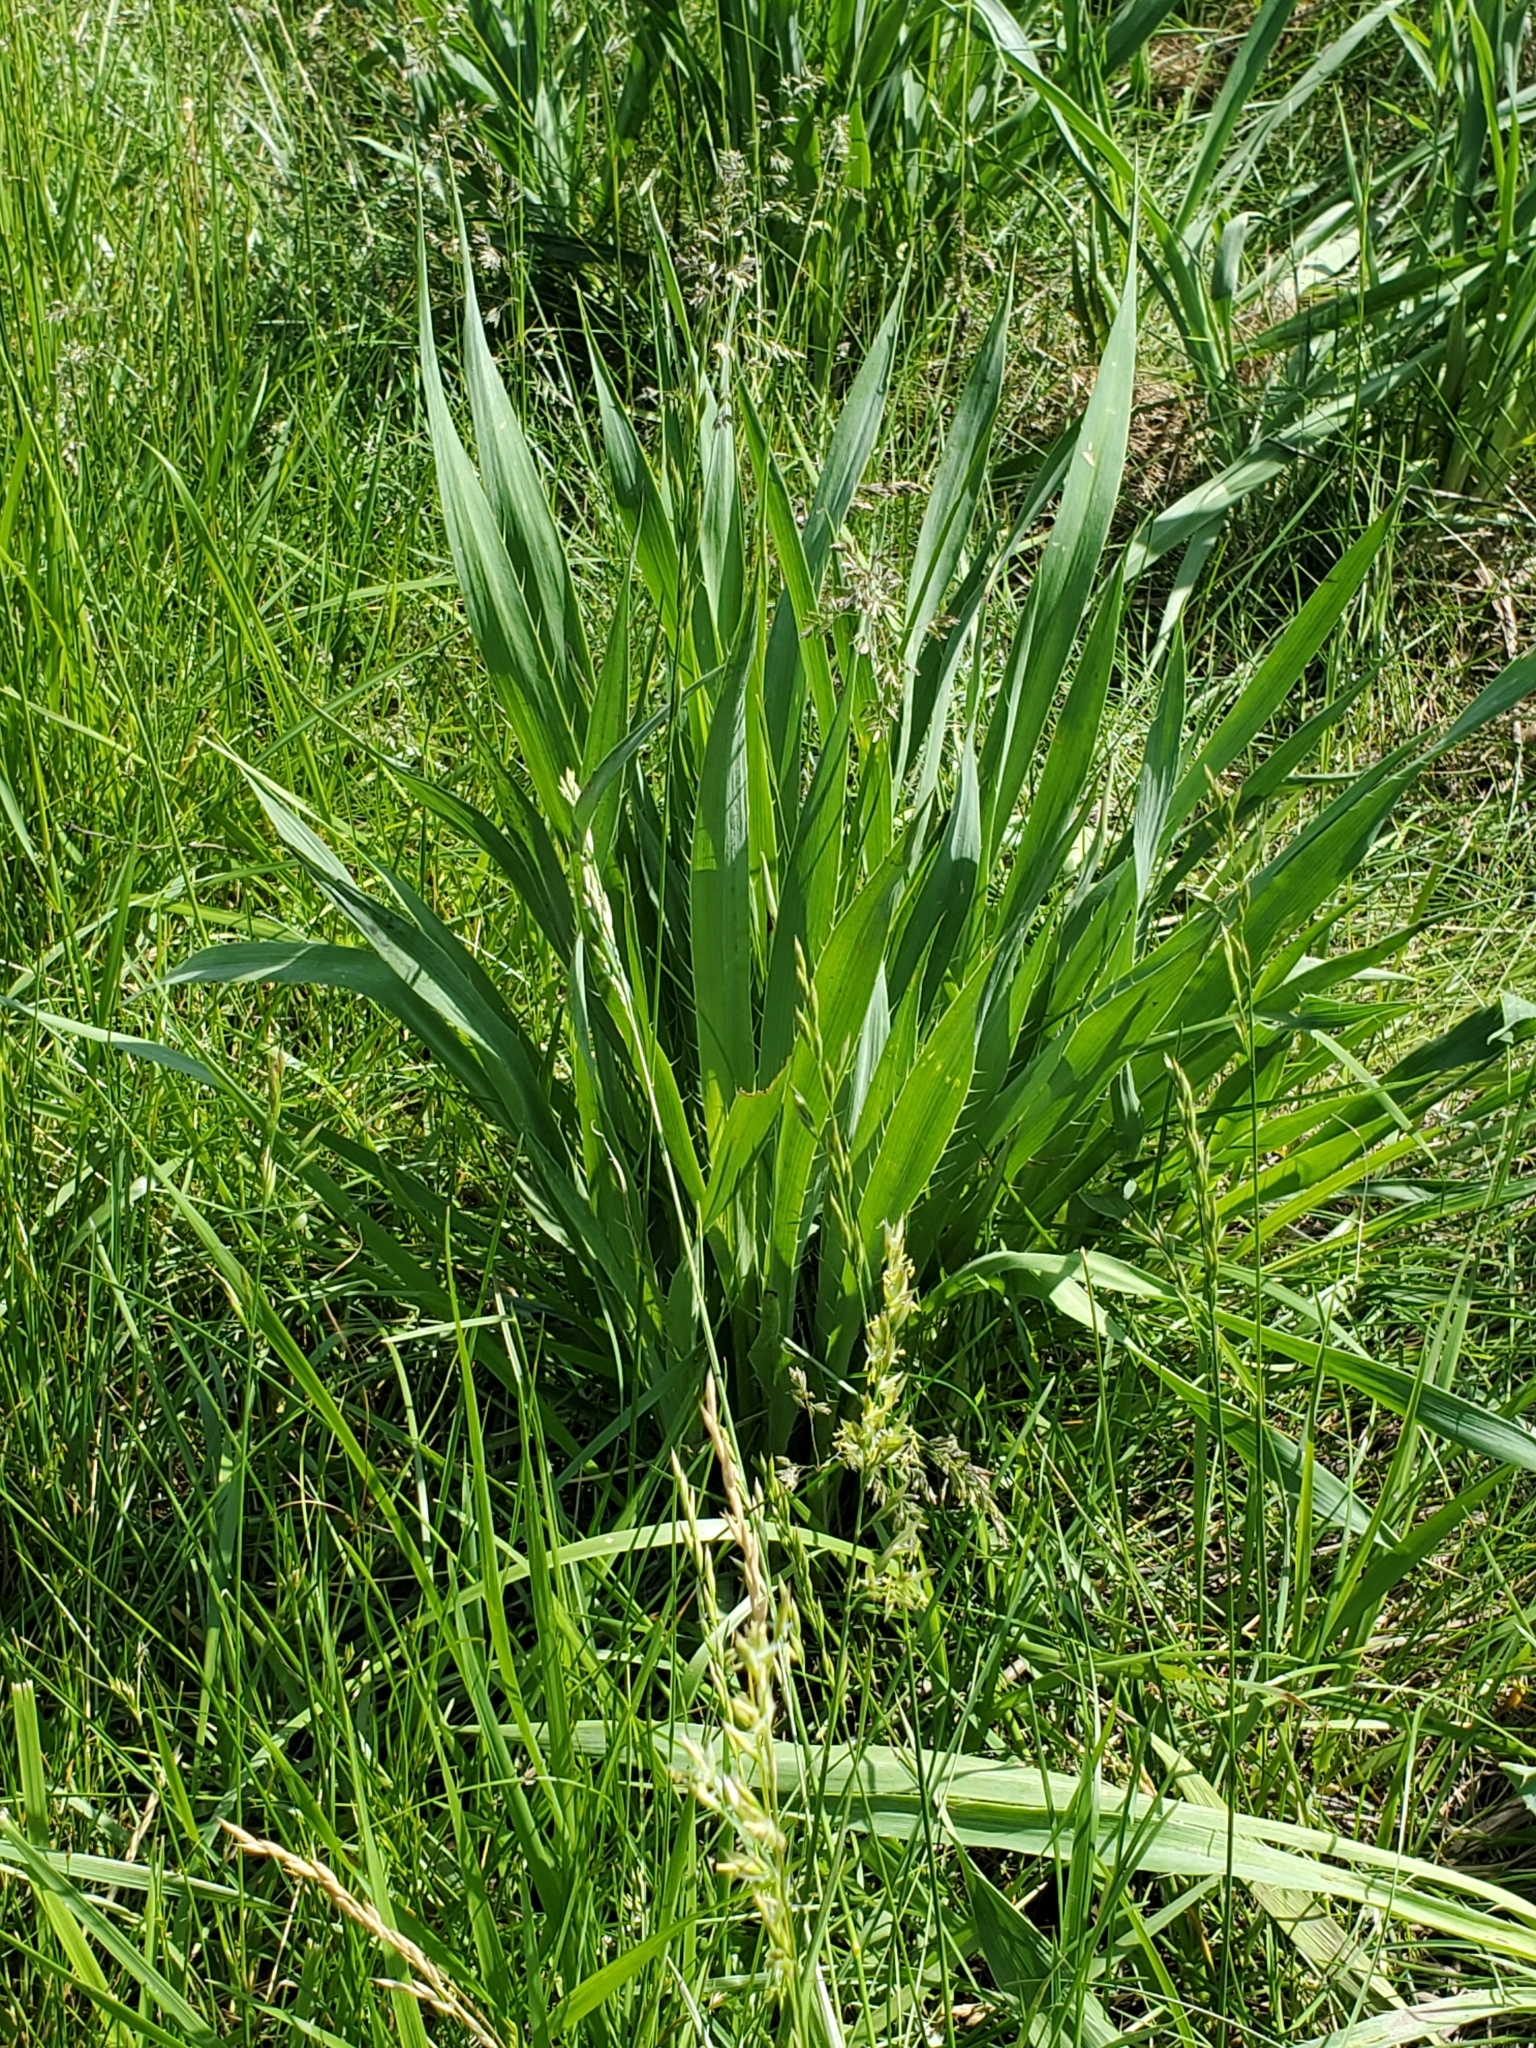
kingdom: Plantae
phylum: Tracheophyta
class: Magnoliopsida
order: Apiales
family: Apiaceae
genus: Eryngium
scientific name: Eryngium yuccifolium
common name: Button eryngo
